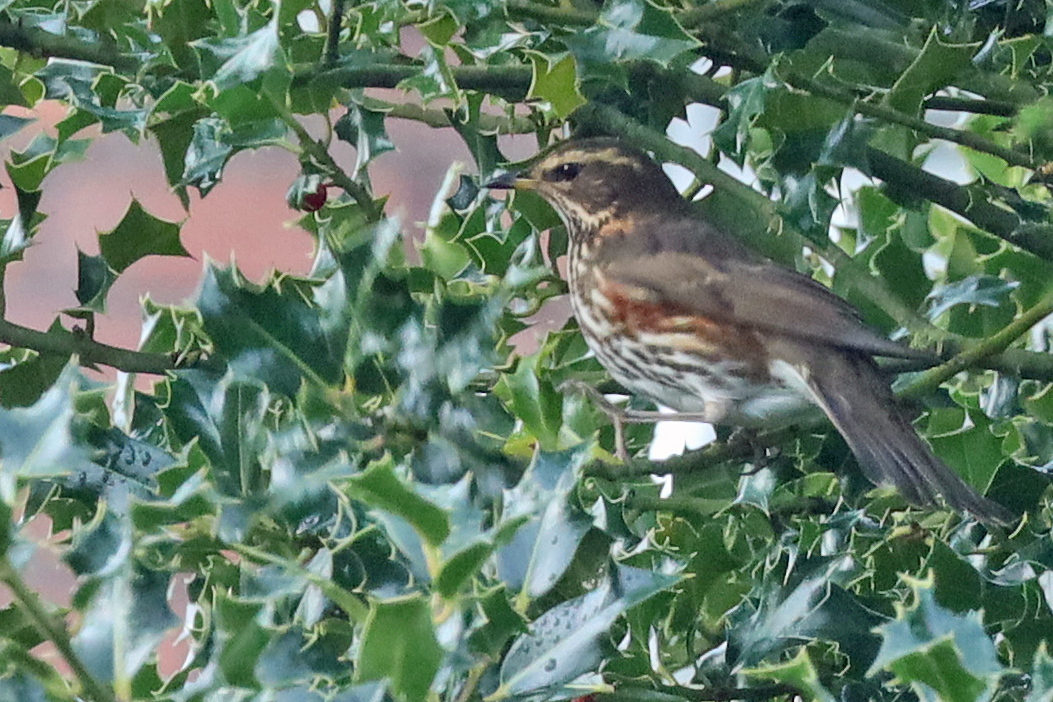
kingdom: Animalia
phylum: Chordata
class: Aves
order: Passeriformes
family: Turdidae
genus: Turdus
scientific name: Turdus iliacus
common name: Redwing
